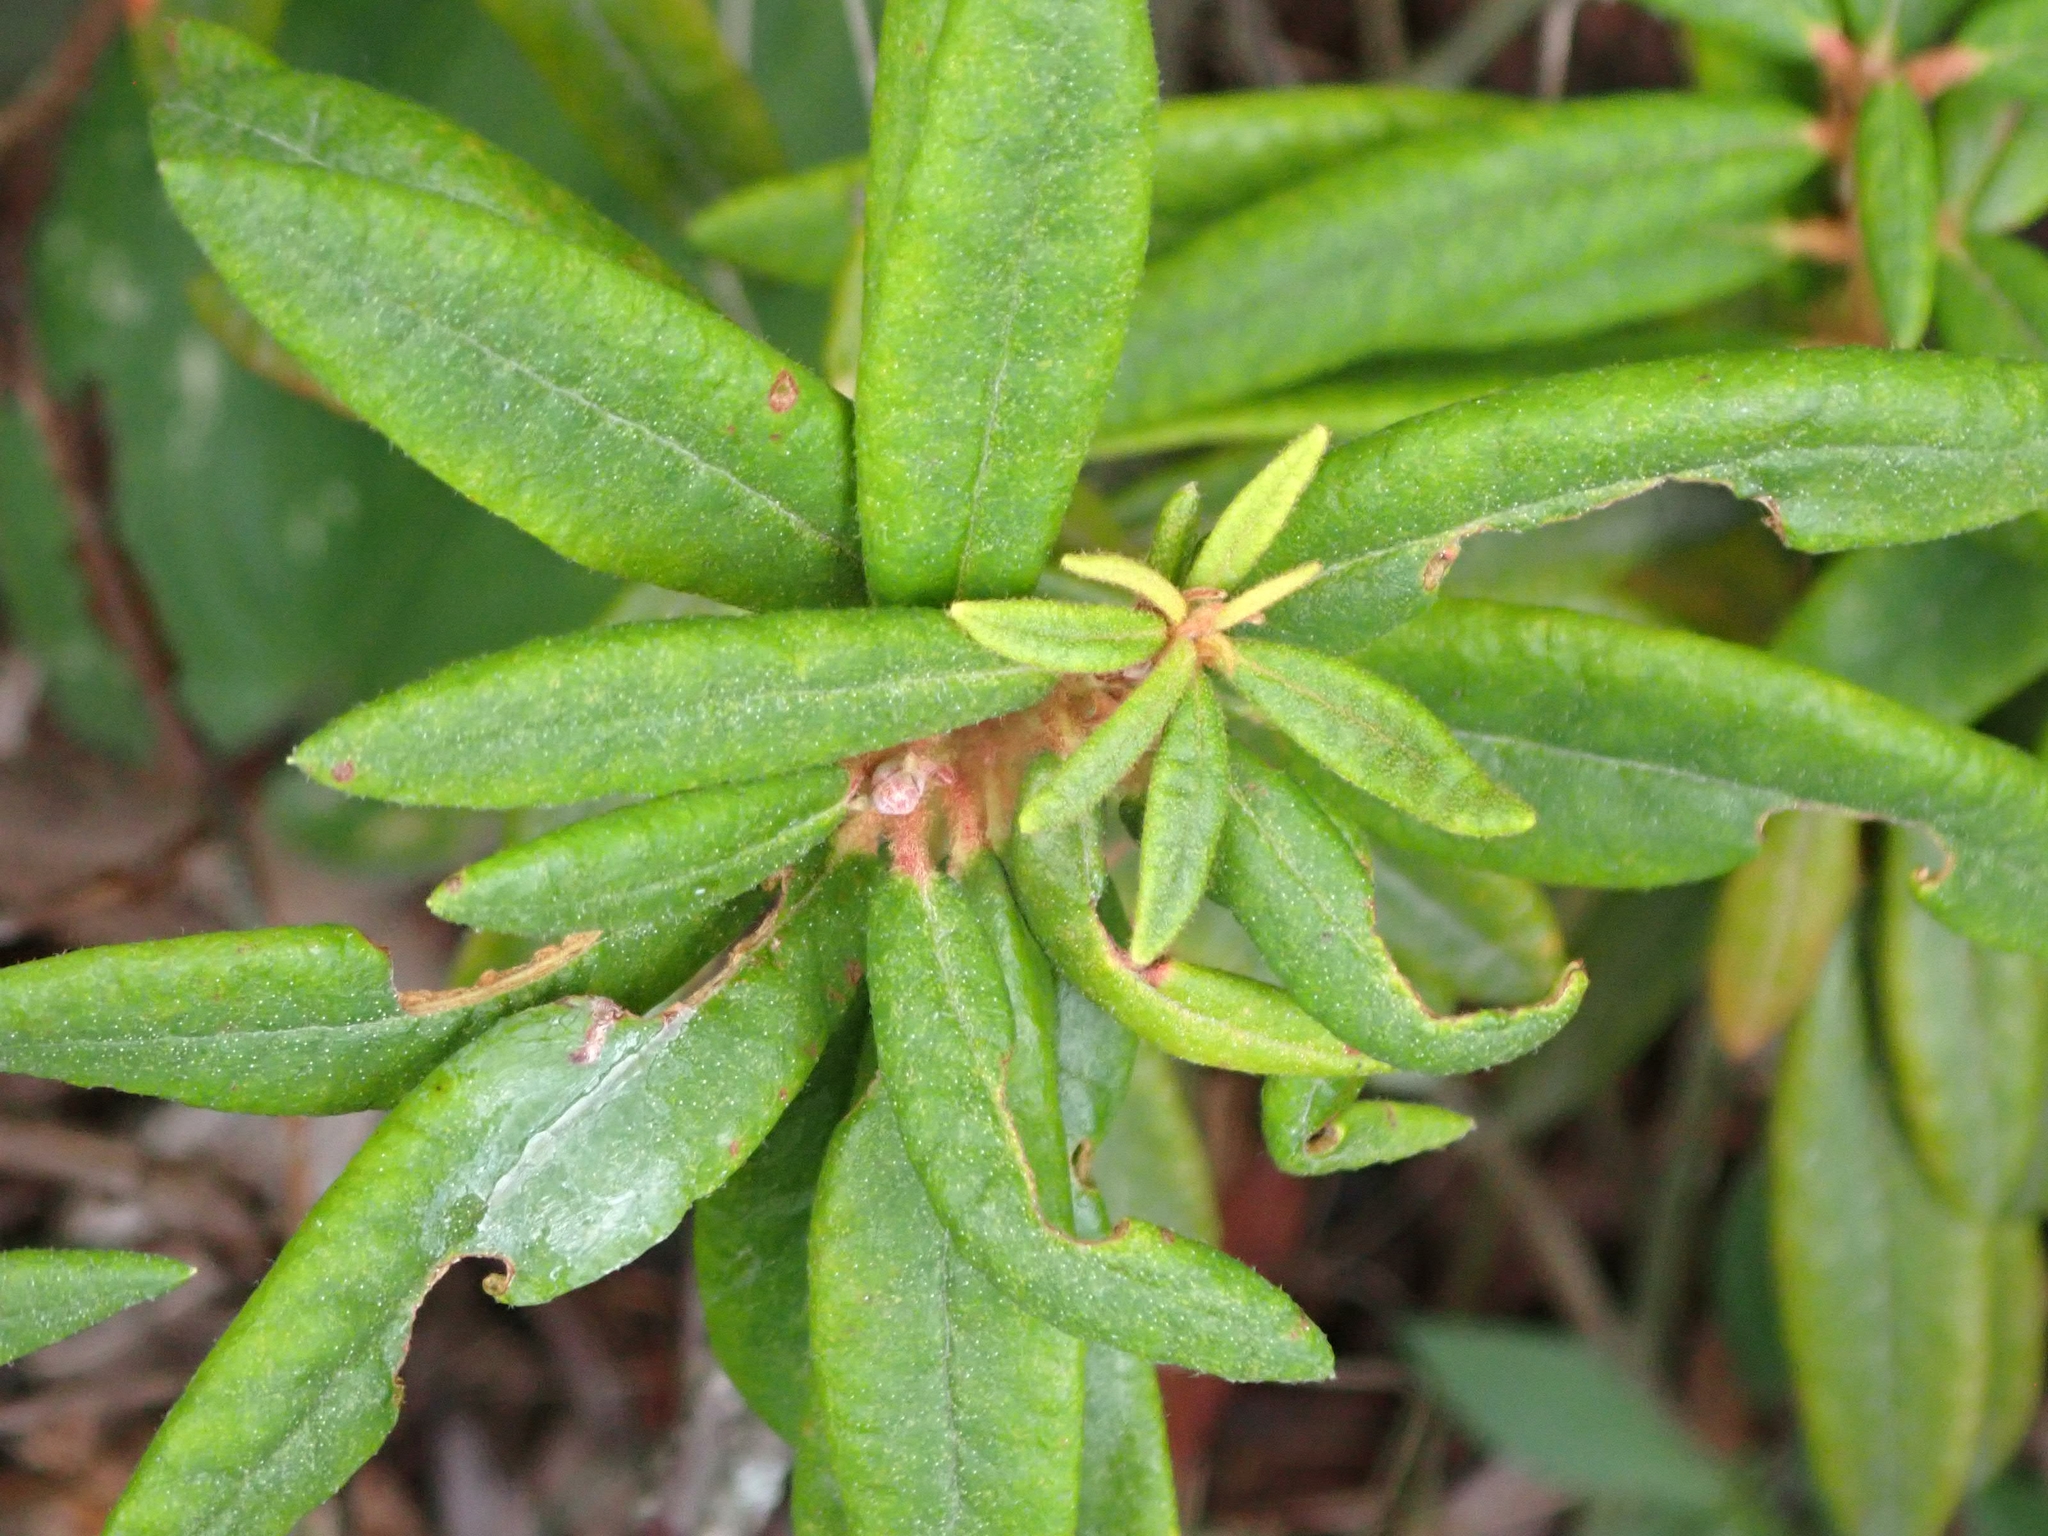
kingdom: Plantae
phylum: Tracheophyta
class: Magnoliopsida
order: Ericales
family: Ericaceae
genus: Rhododendron
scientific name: Rhododendron groenlandicum
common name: Bog labrador tea
